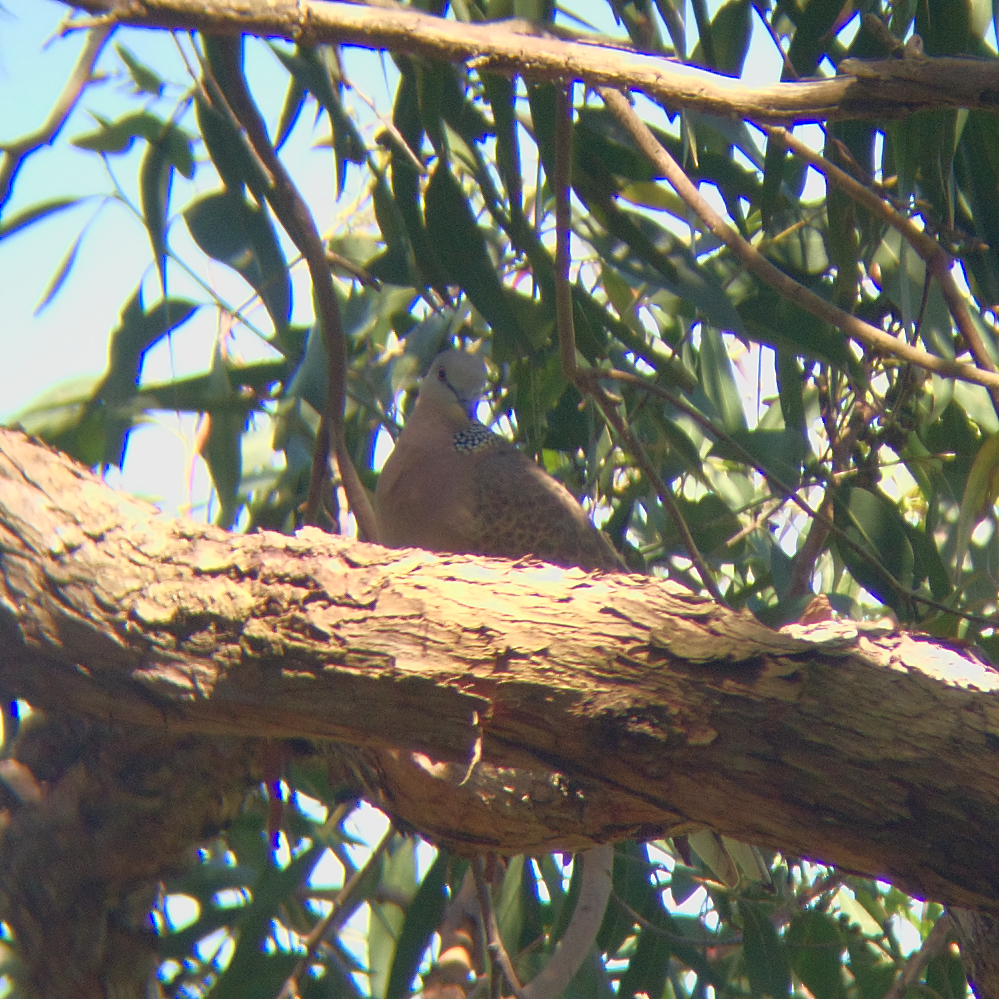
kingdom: Animalia
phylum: Chordata
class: Aves
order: Columbiformes
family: Columbidae
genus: Spilopelia
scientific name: Spilopelia chinensis
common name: Spotted dove
